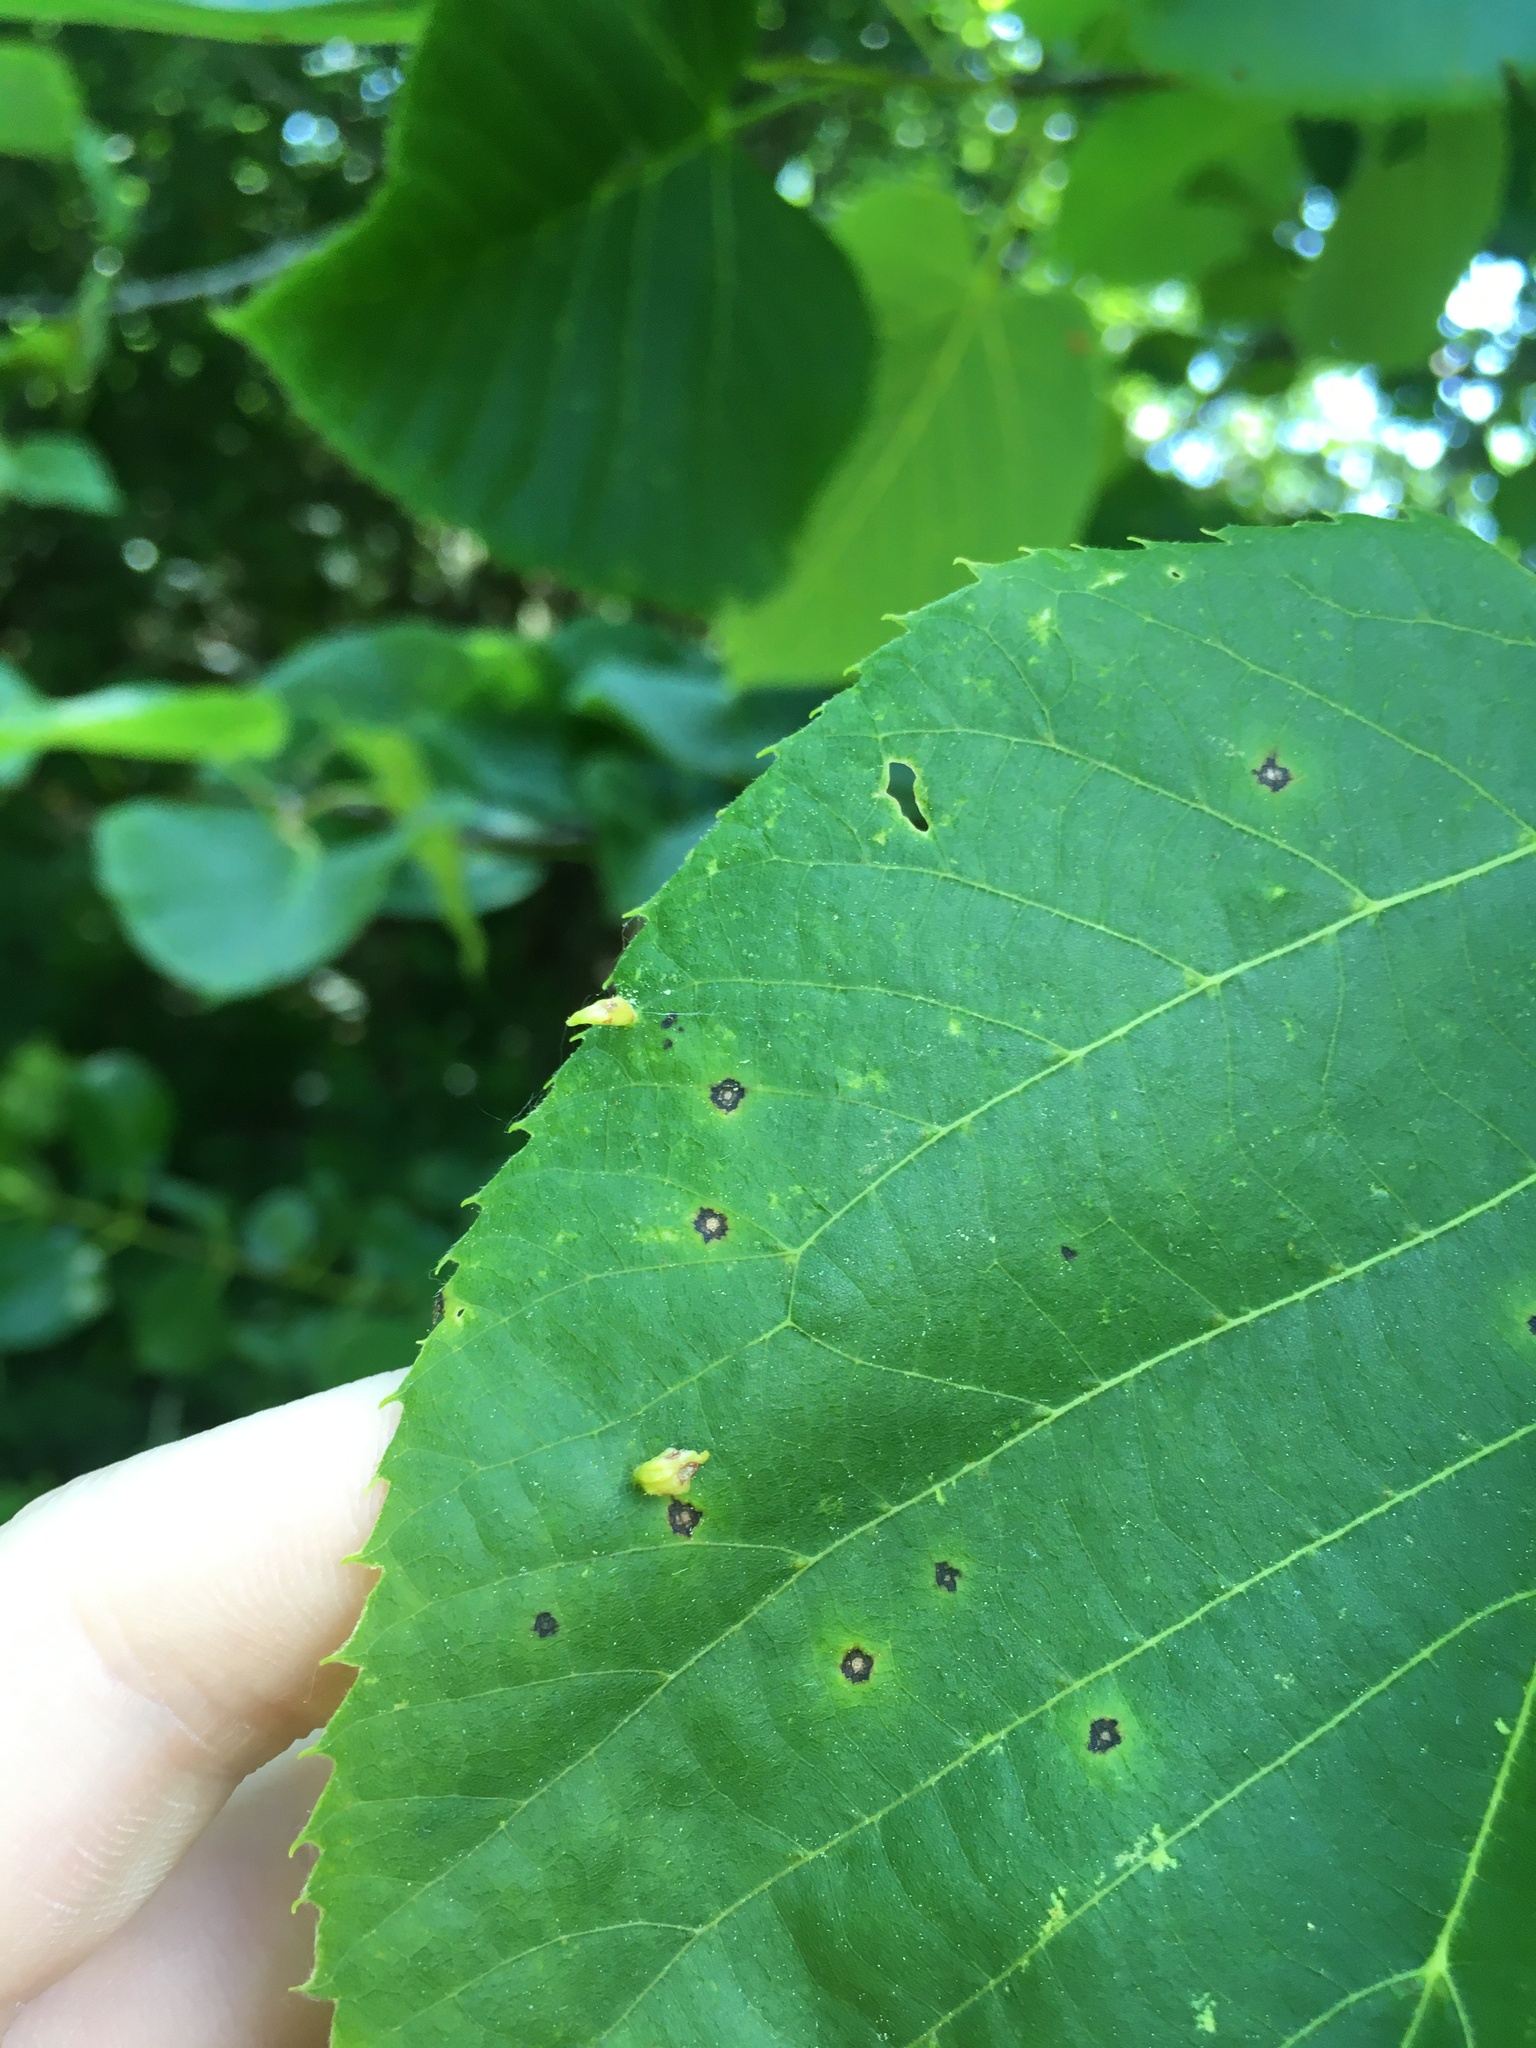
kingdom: Animalia
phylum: Arthropoda
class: Arachnida
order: Trombidiformes
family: Eriophyidae
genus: Eriophyes
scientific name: Eriophyes tiliae
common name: Red nail gall mite
